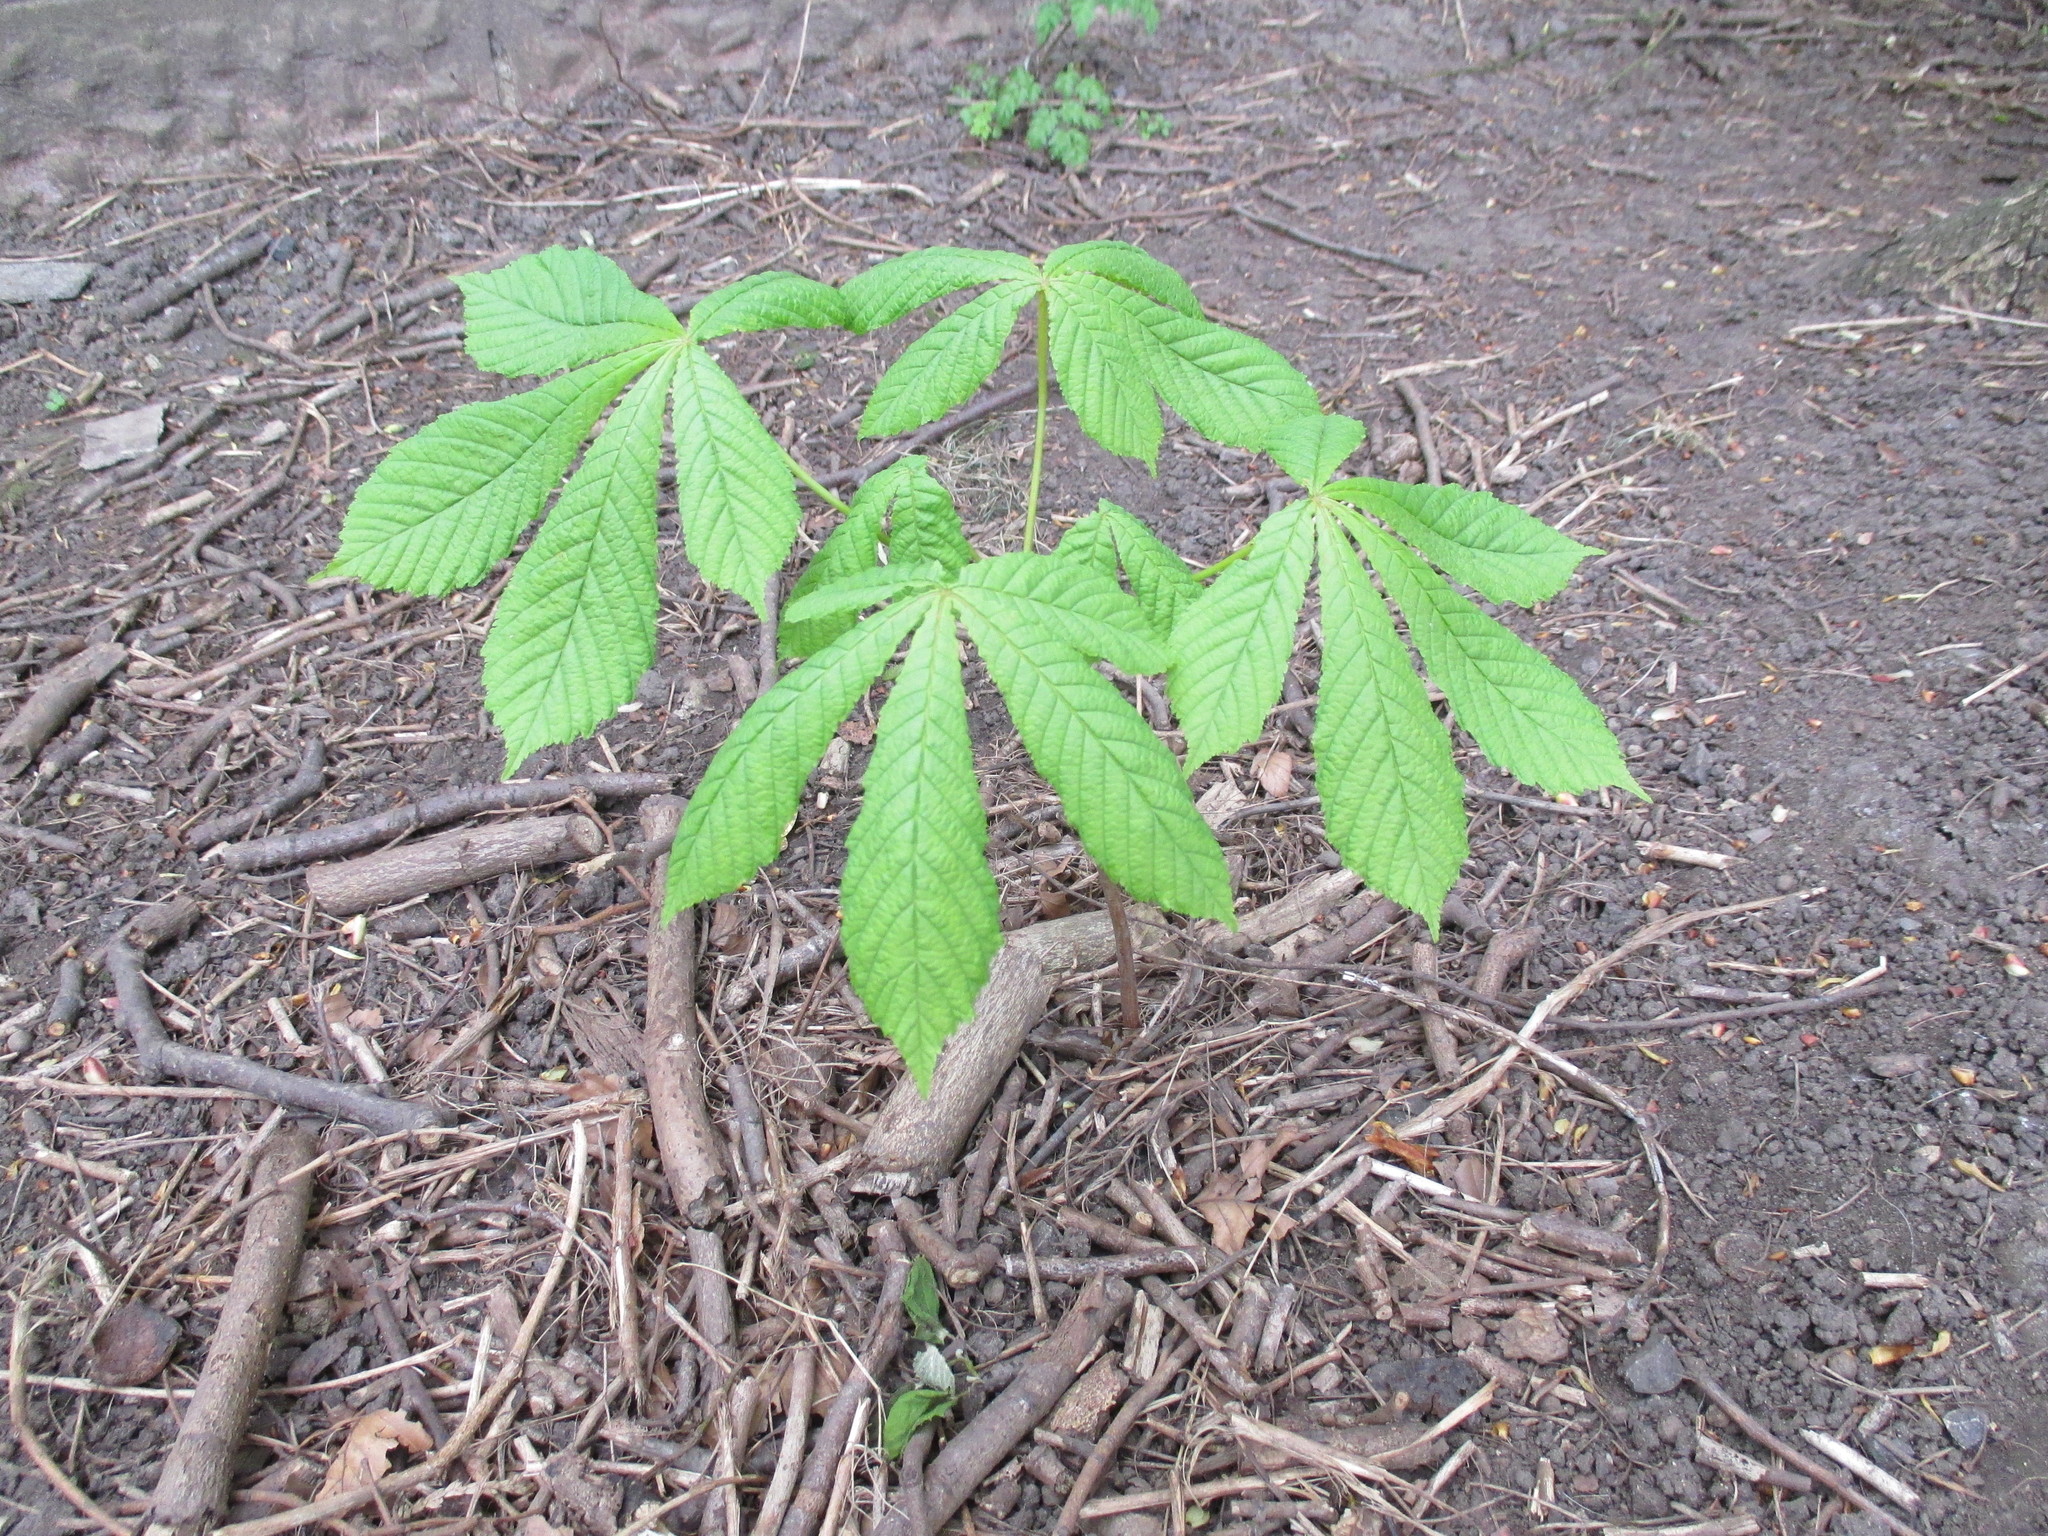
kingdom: Plantae
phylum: Tracheophyta
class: Magnoliopsida
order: Sapindales
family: Sapindaceae
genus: Aesculus
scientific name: Aesculus hippocastanum
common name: Horse-chestnut
